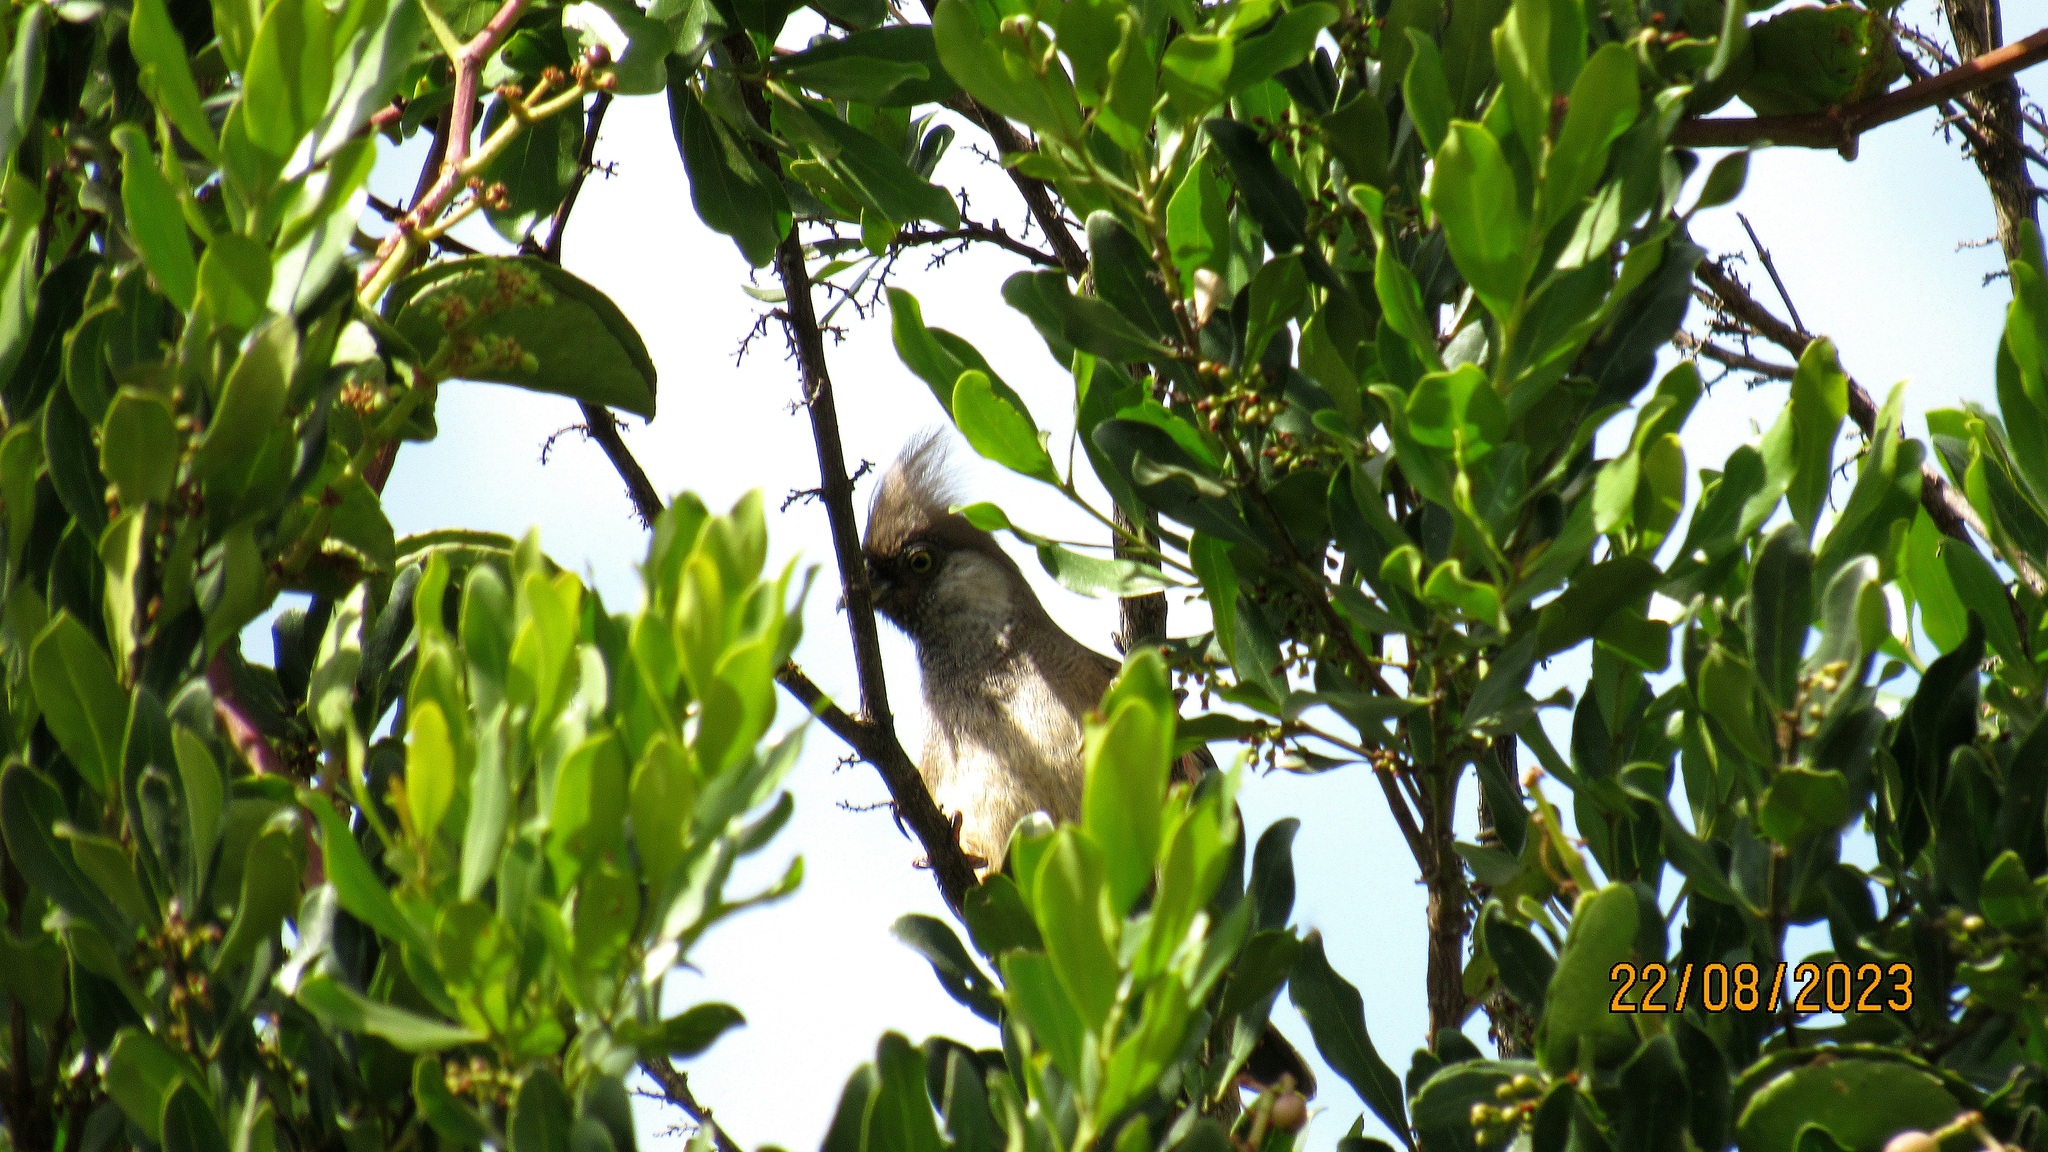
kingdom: Animalia
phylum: Chordata
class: Aves
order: Coliiformes
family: Coliidae
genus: Colius
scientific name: Colius striatus
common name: Speckled mousebird
